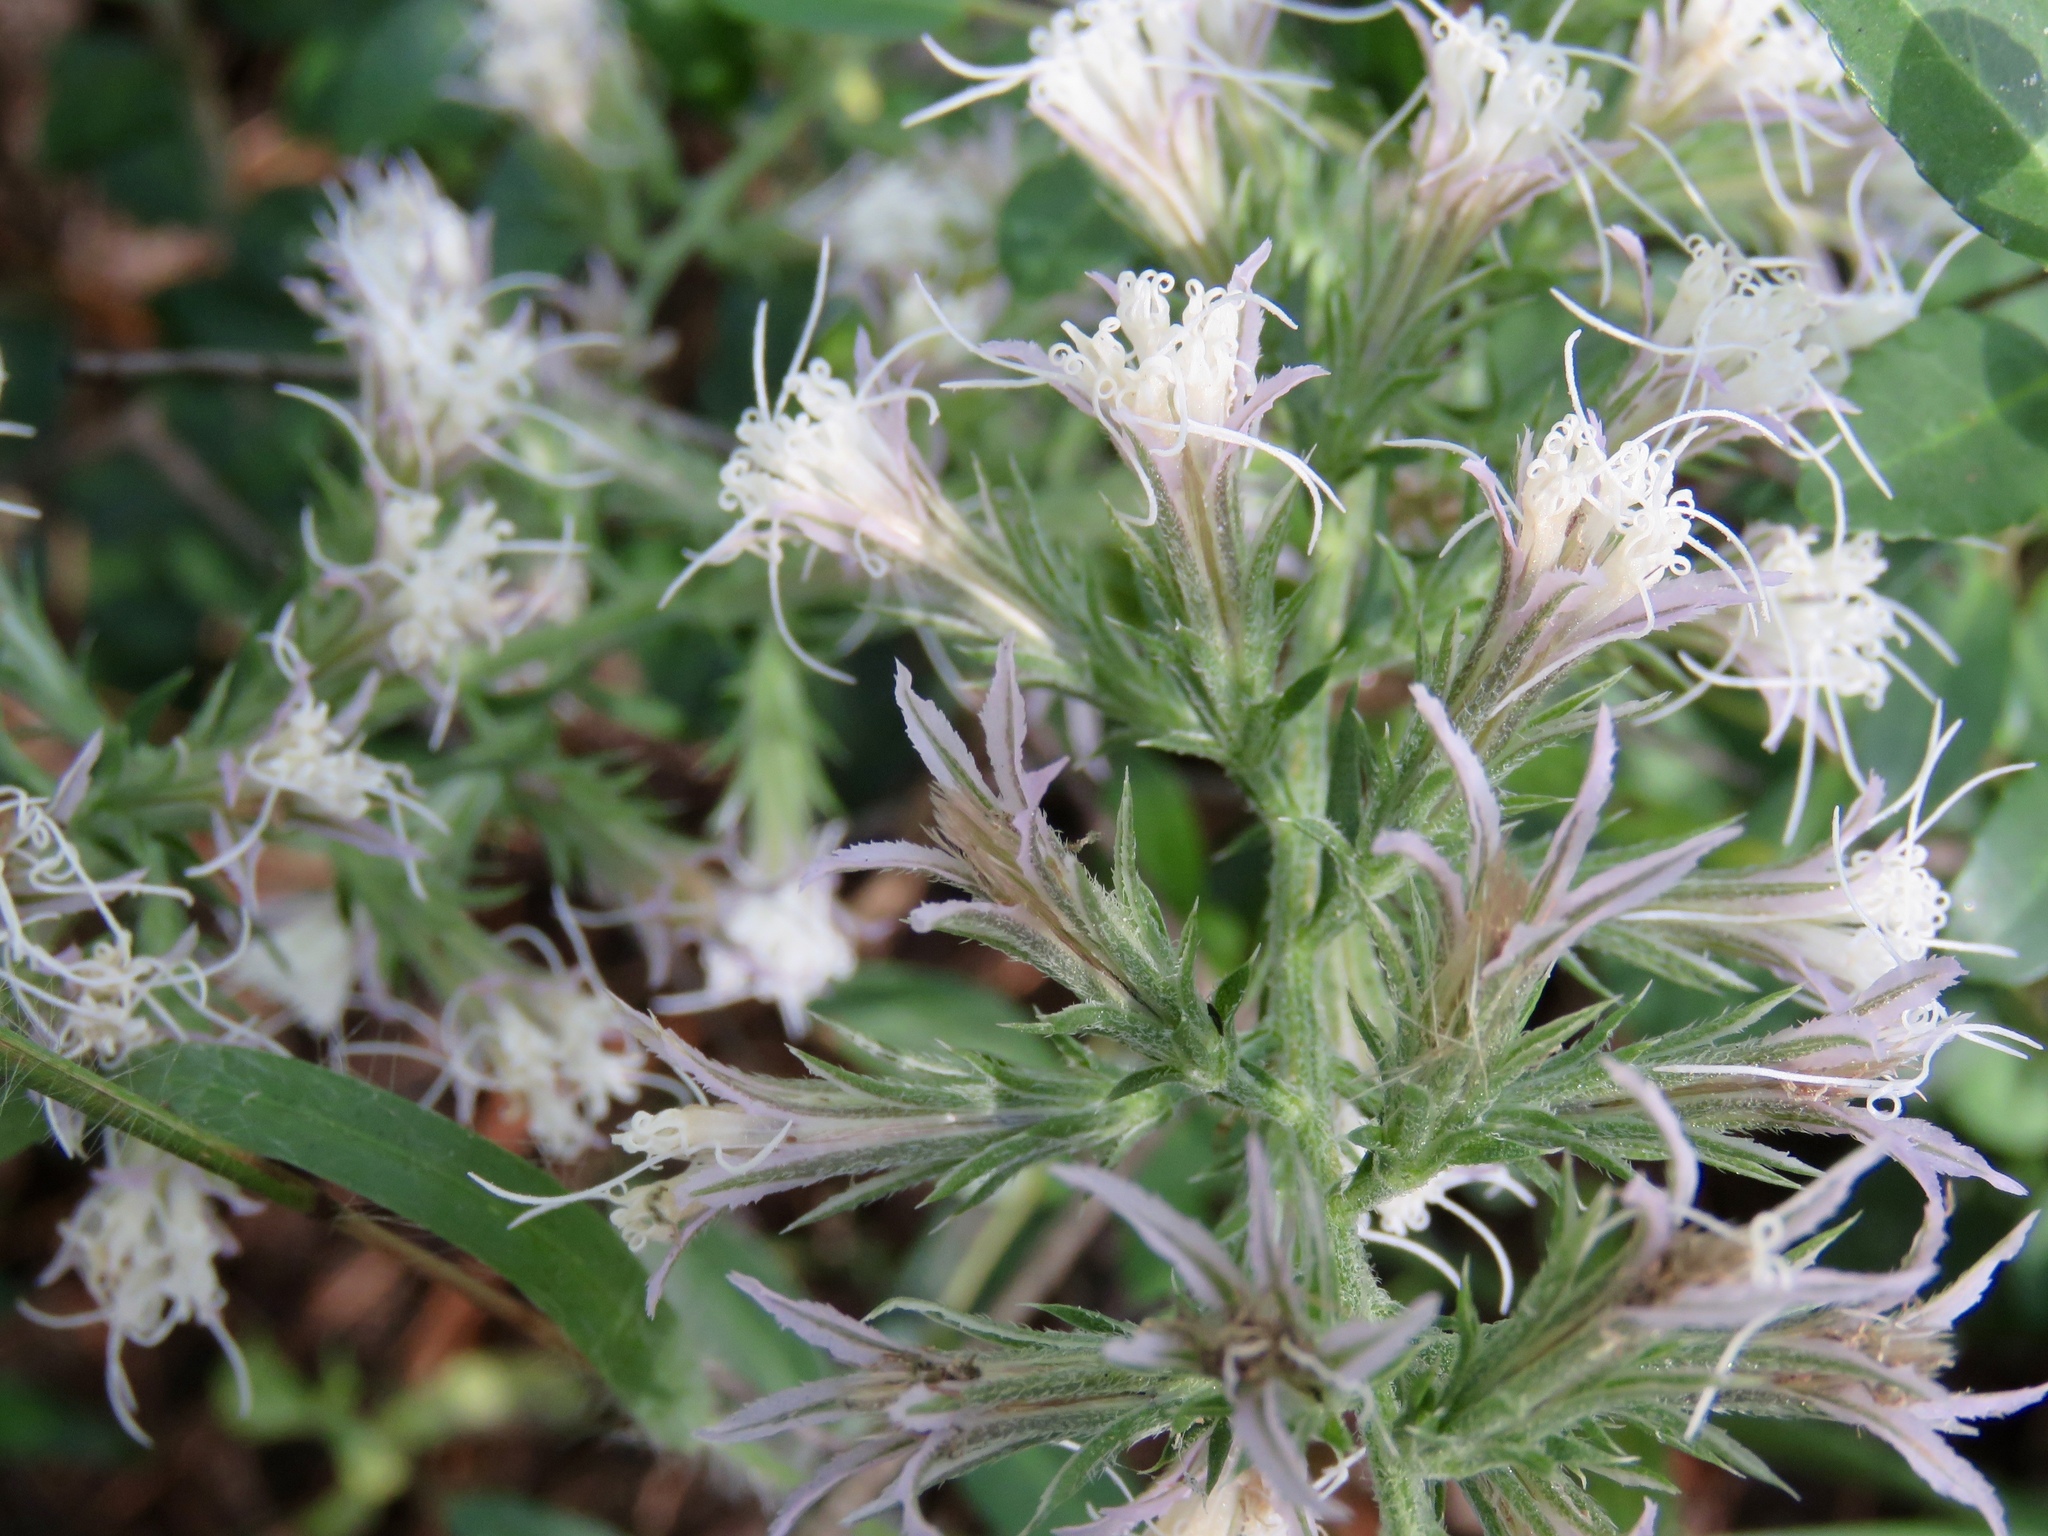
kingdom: Plantae
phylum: Tracheophyta
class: Magnoliopsida
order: Asterales
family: Asteraceae
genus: Liatris
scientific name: Liatris hesperelegans
